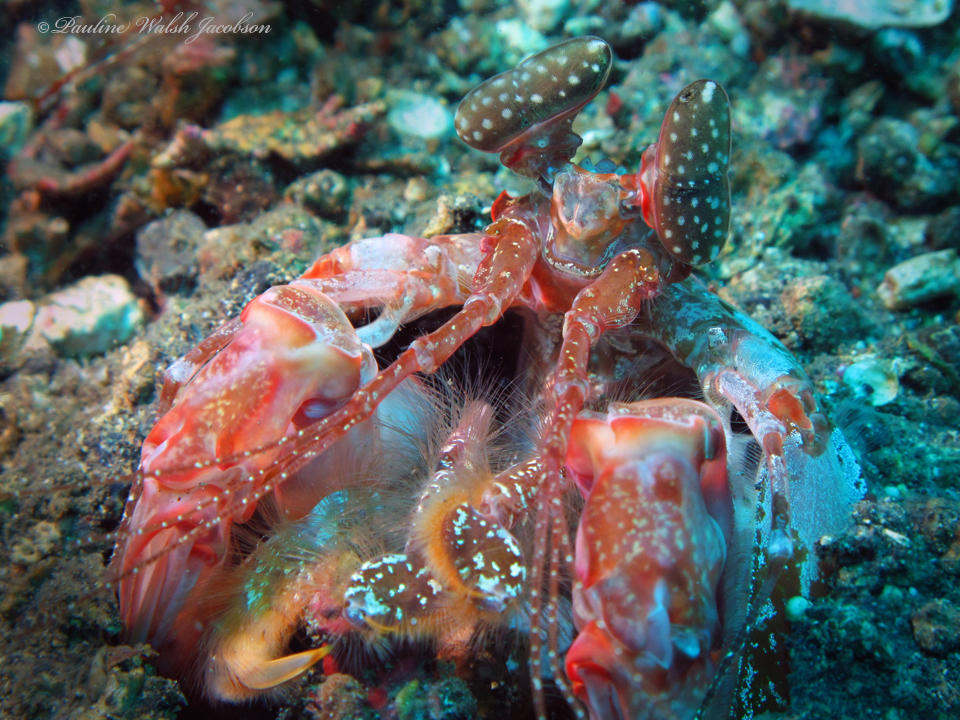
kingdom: Animalia
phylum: Arthropoda
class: Malacostraca
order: Stomatopoda
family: Lysiosquillidae
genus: Lysiosquilla
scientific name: Lysiosquilla lisa
